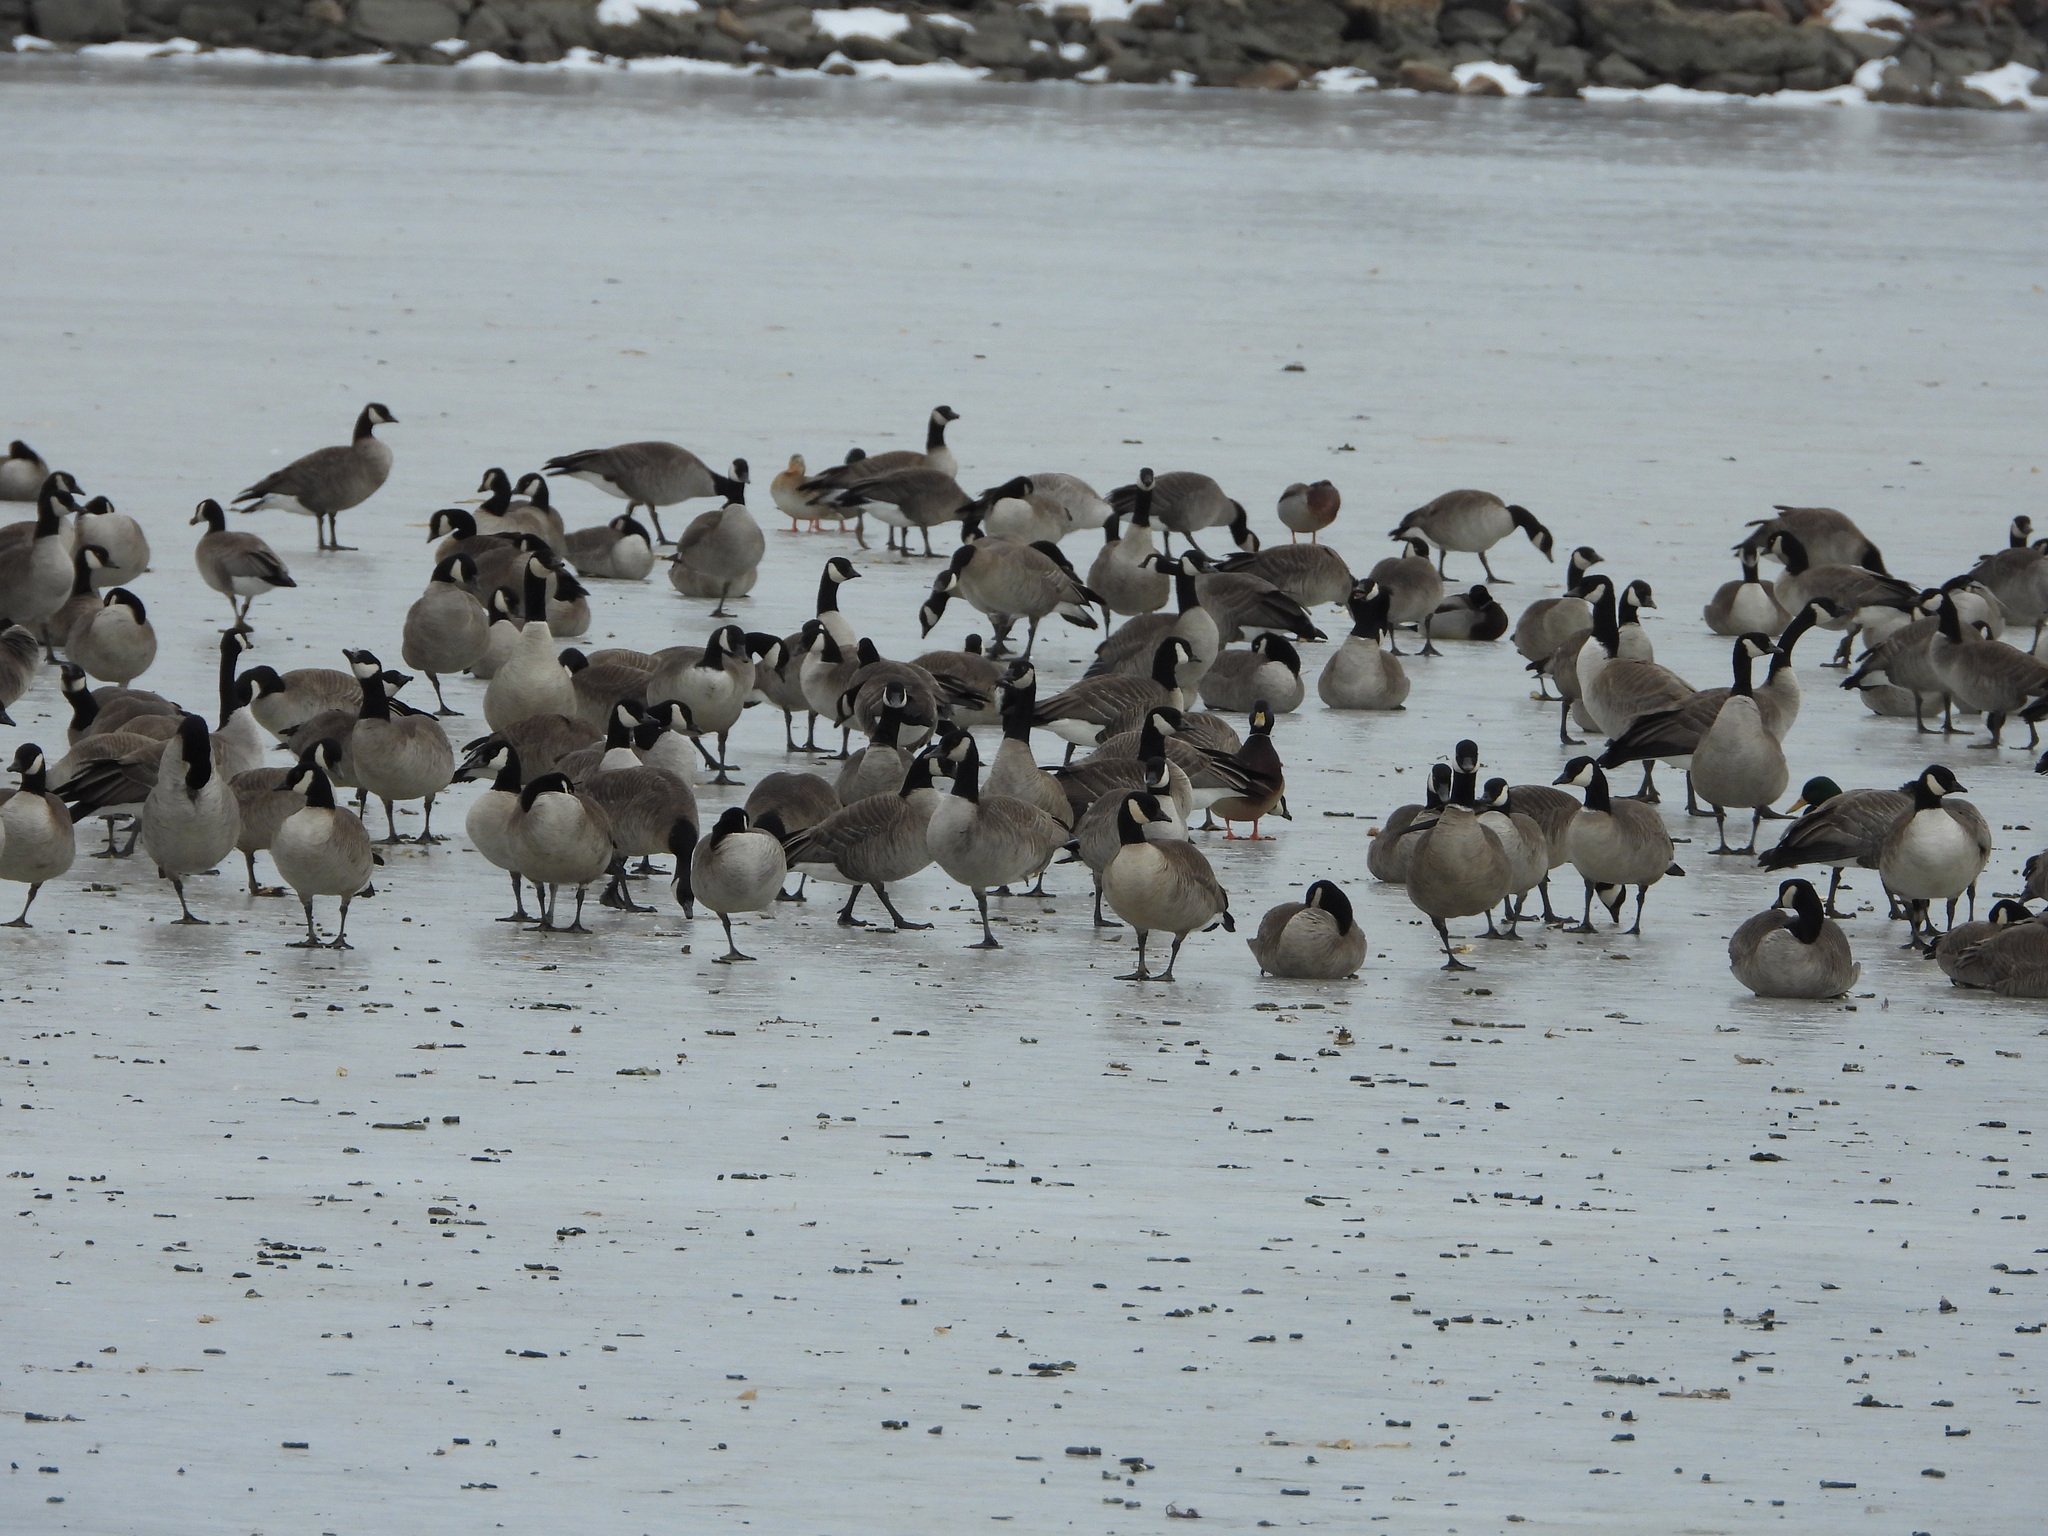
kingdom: Animalia
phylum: Chordata
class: Aves
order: Anseriformes
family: Anatidae
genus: Branta
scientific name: Branta hutchinsii
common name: Cackling goose
